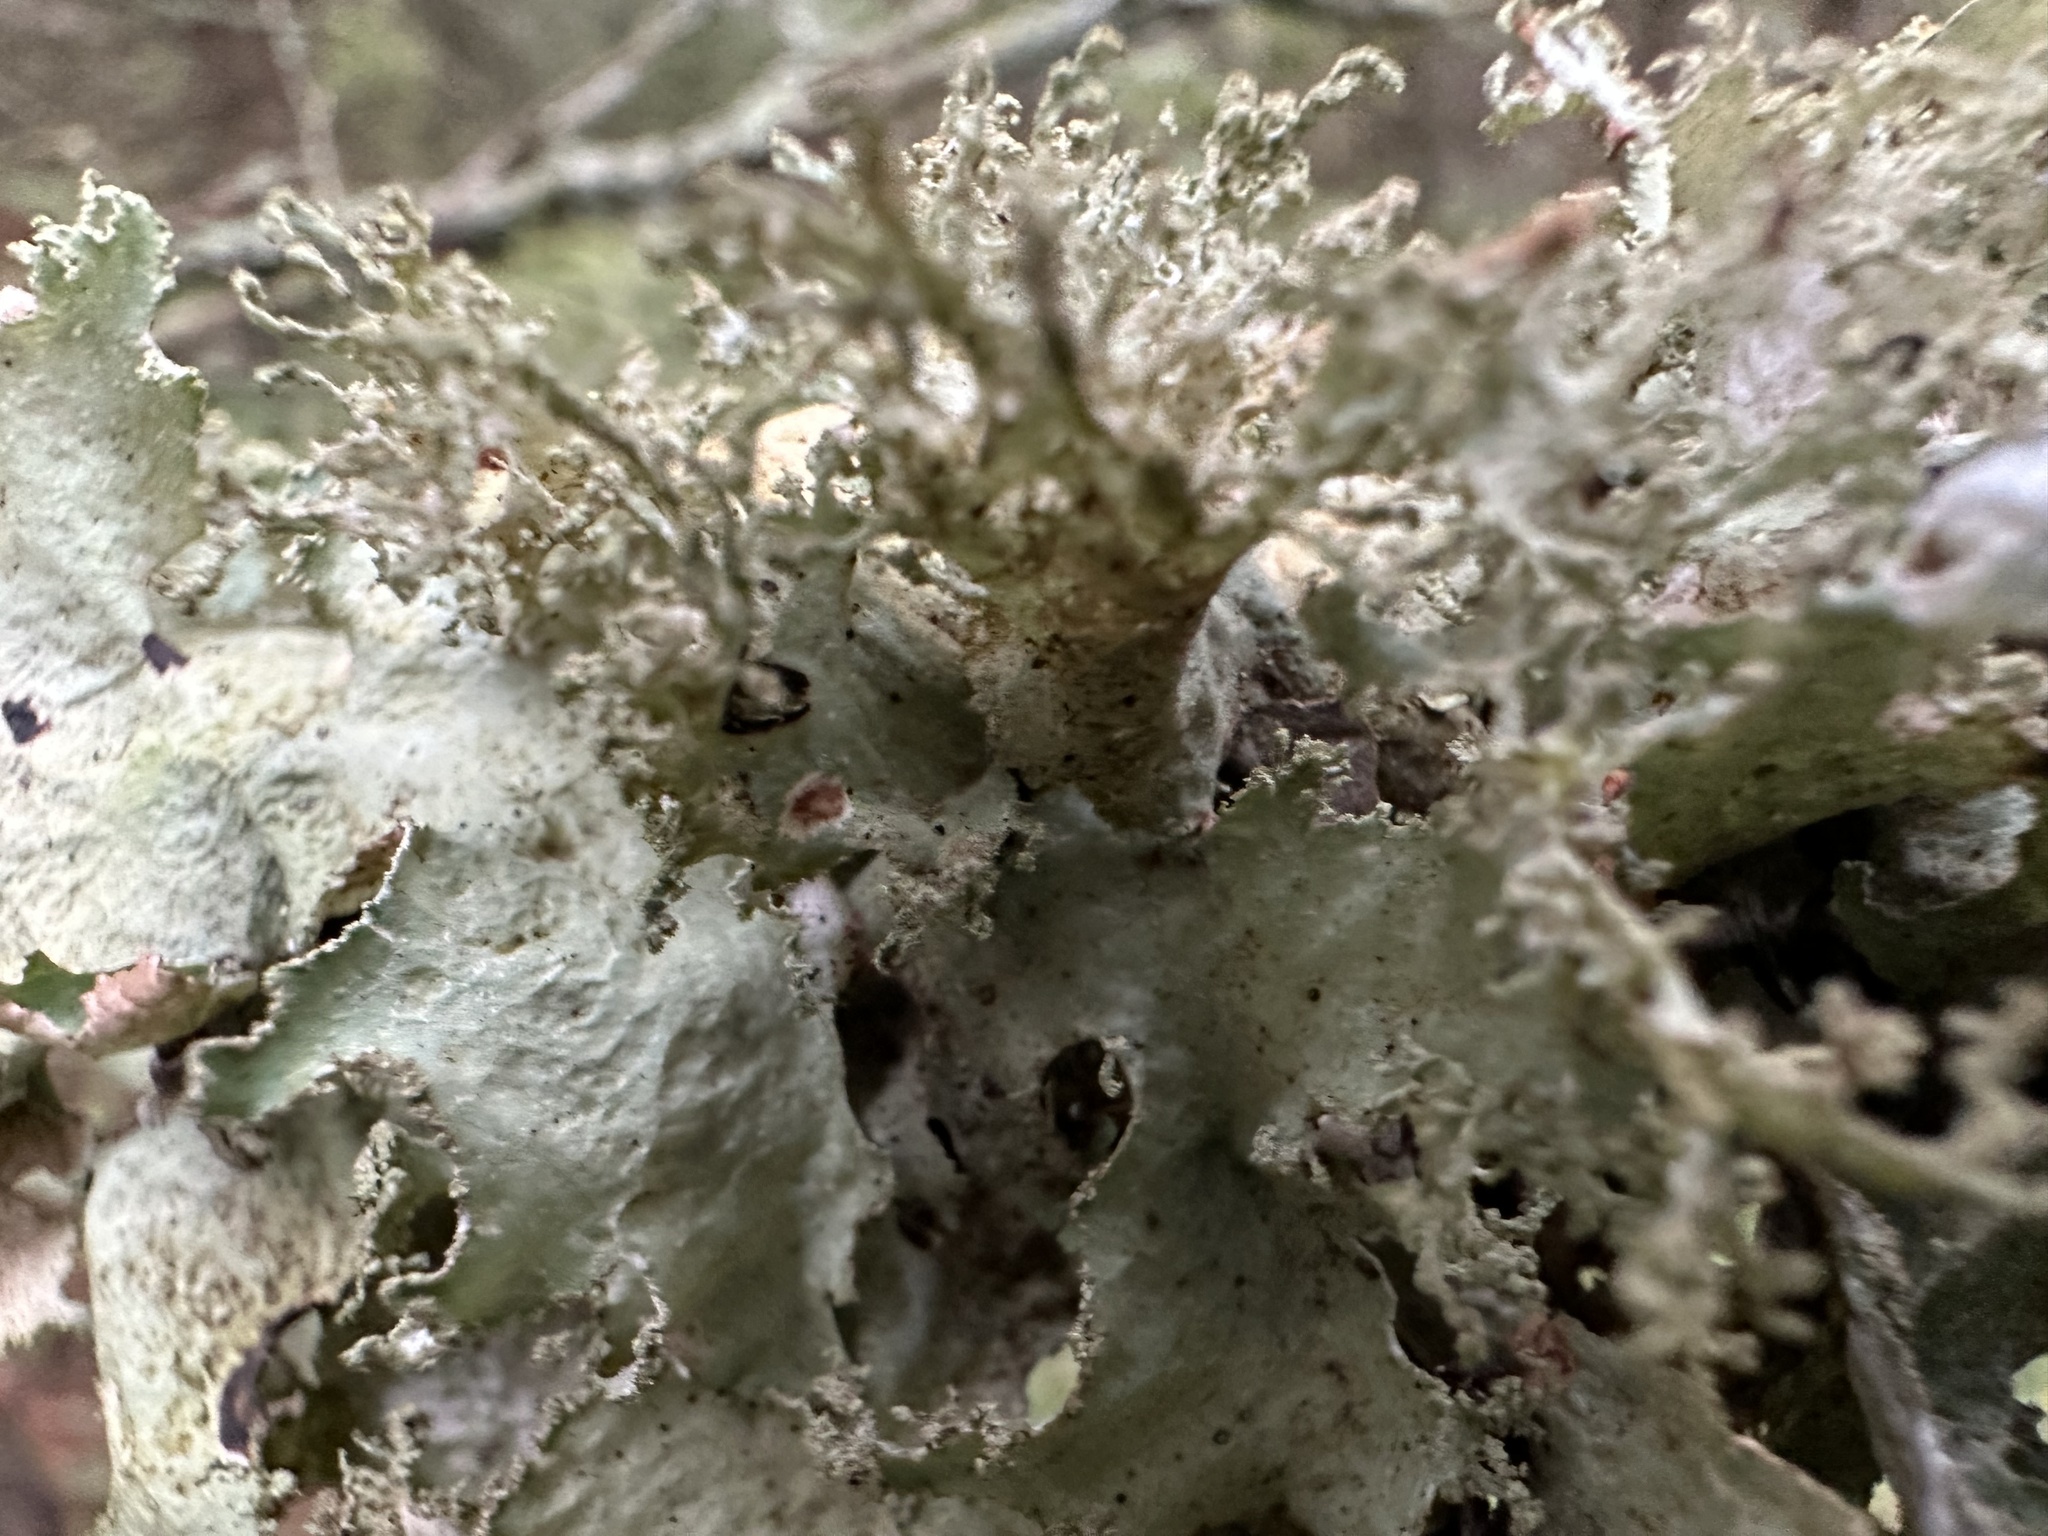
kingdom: Fungi
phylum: Ascomycota
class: Lecanoromycetes
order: Lecanorales
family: Parmeliaceae
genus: Platismatia
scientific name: Platismatia glauca
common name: Varied rag lichen
